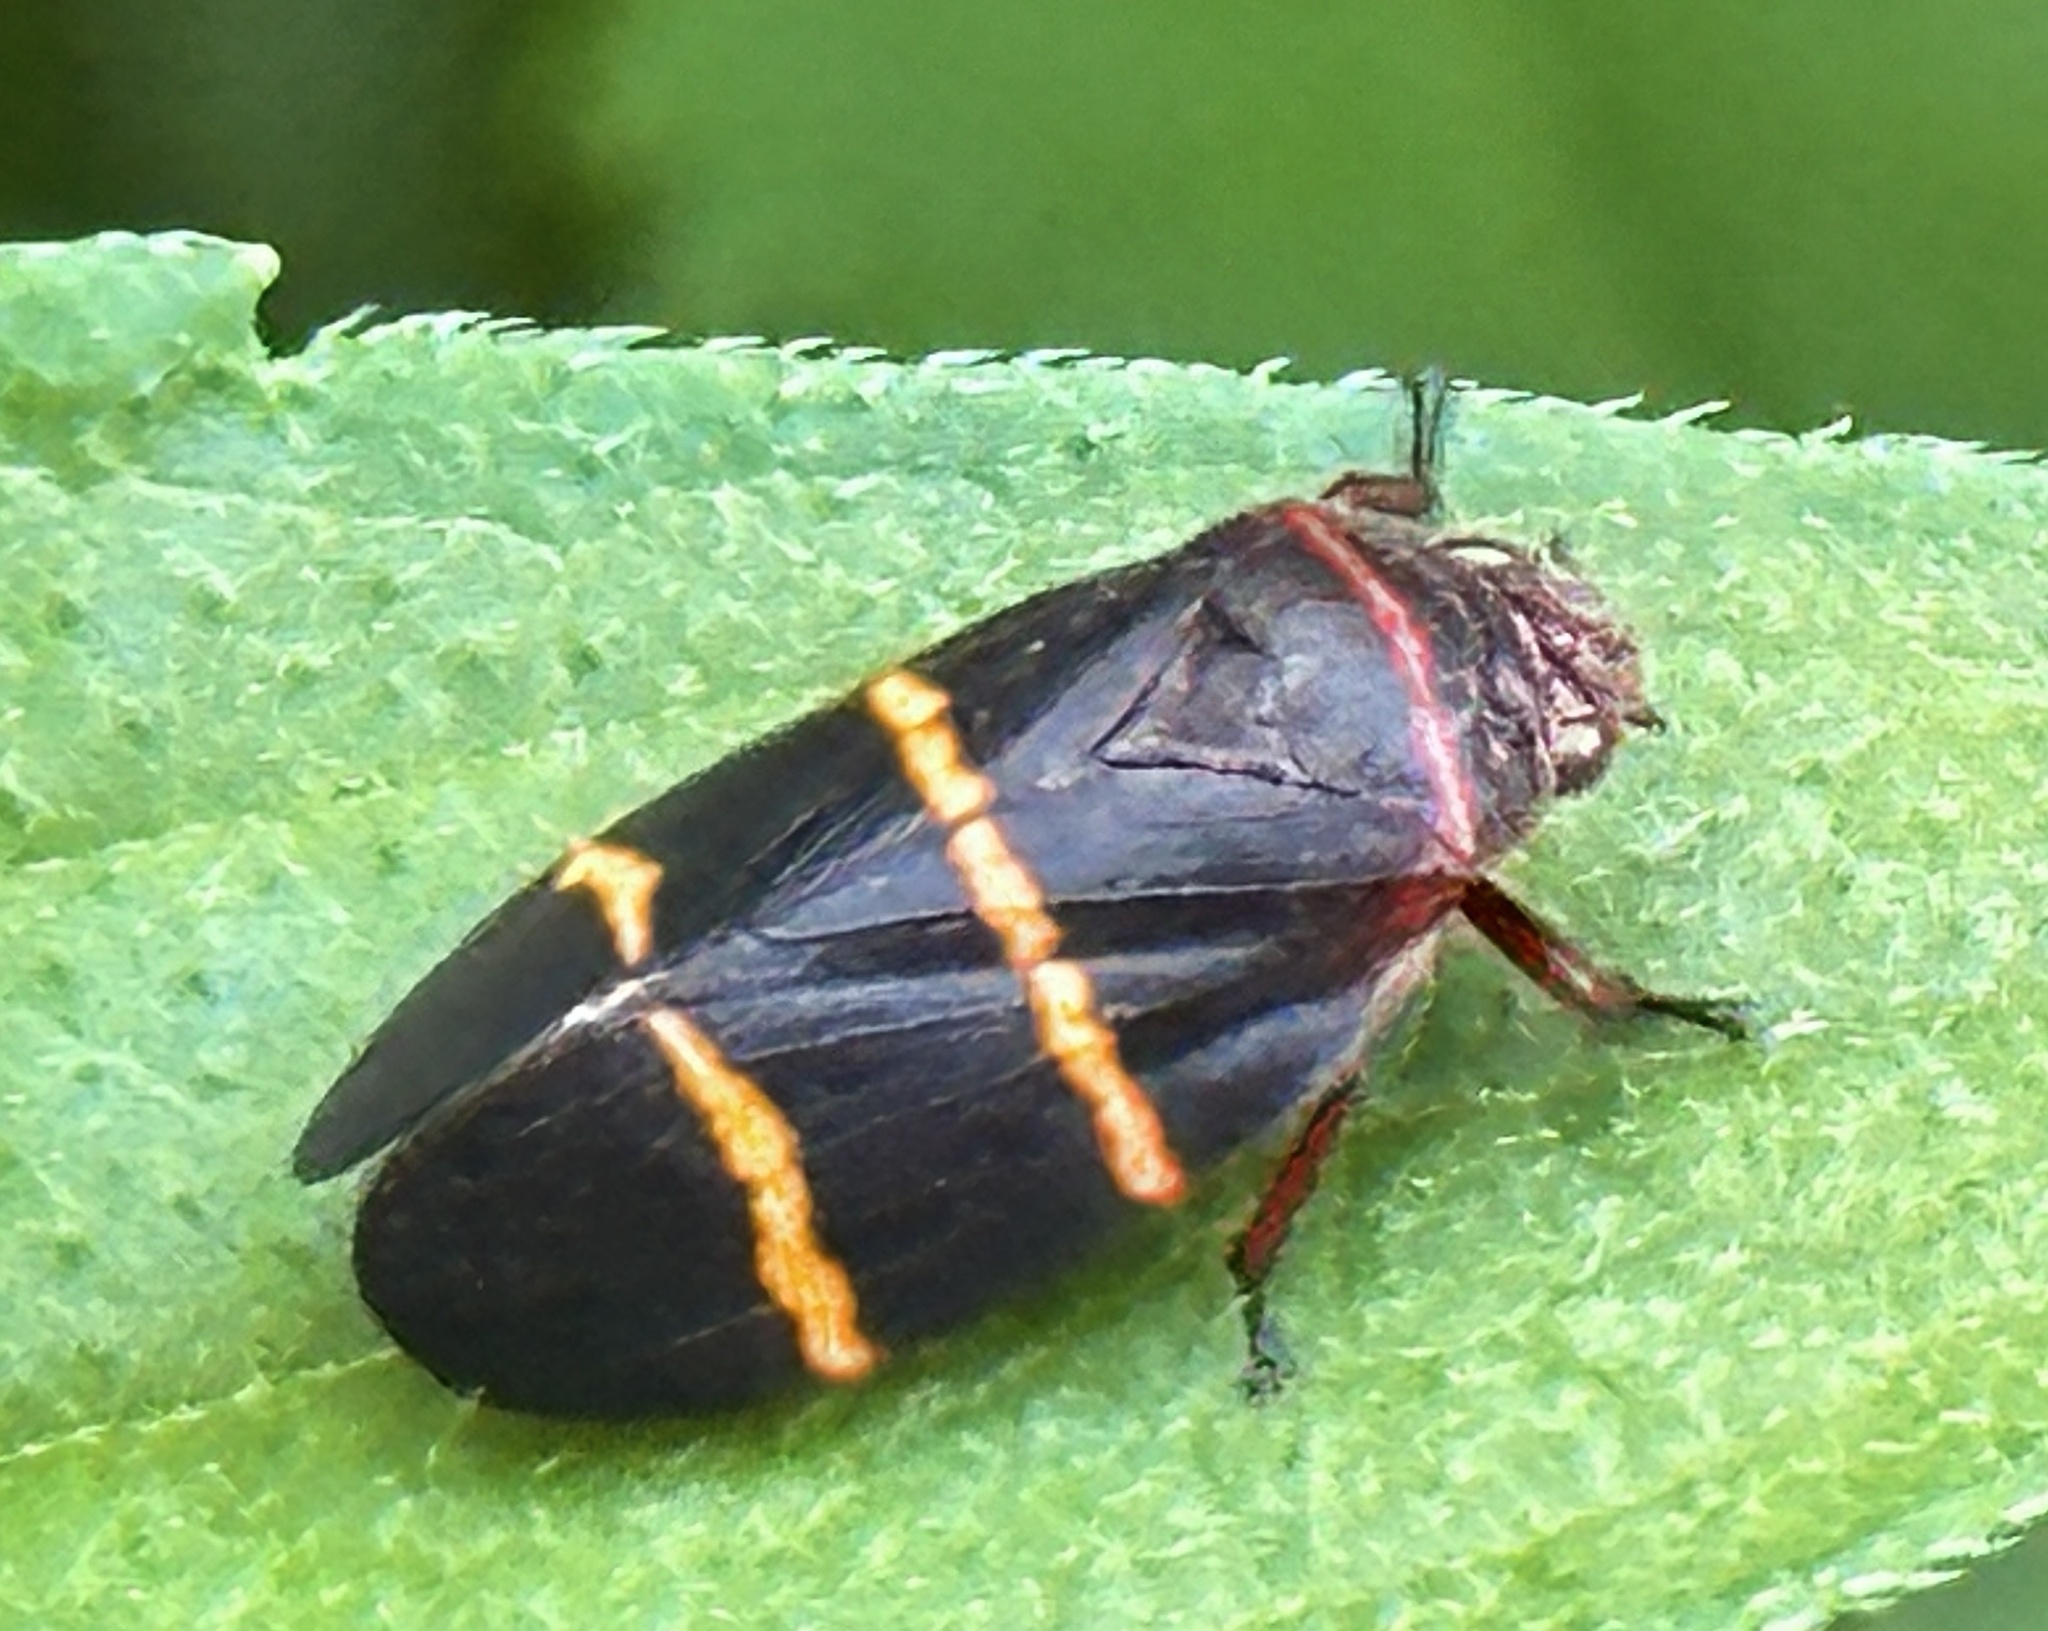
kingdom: Animalia
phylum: Arthropoda
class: Insecta
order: Hemiptera
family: Cercopidae
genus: Prosapia
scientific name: Prosapia bicincta
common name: Twolined spittlebug
